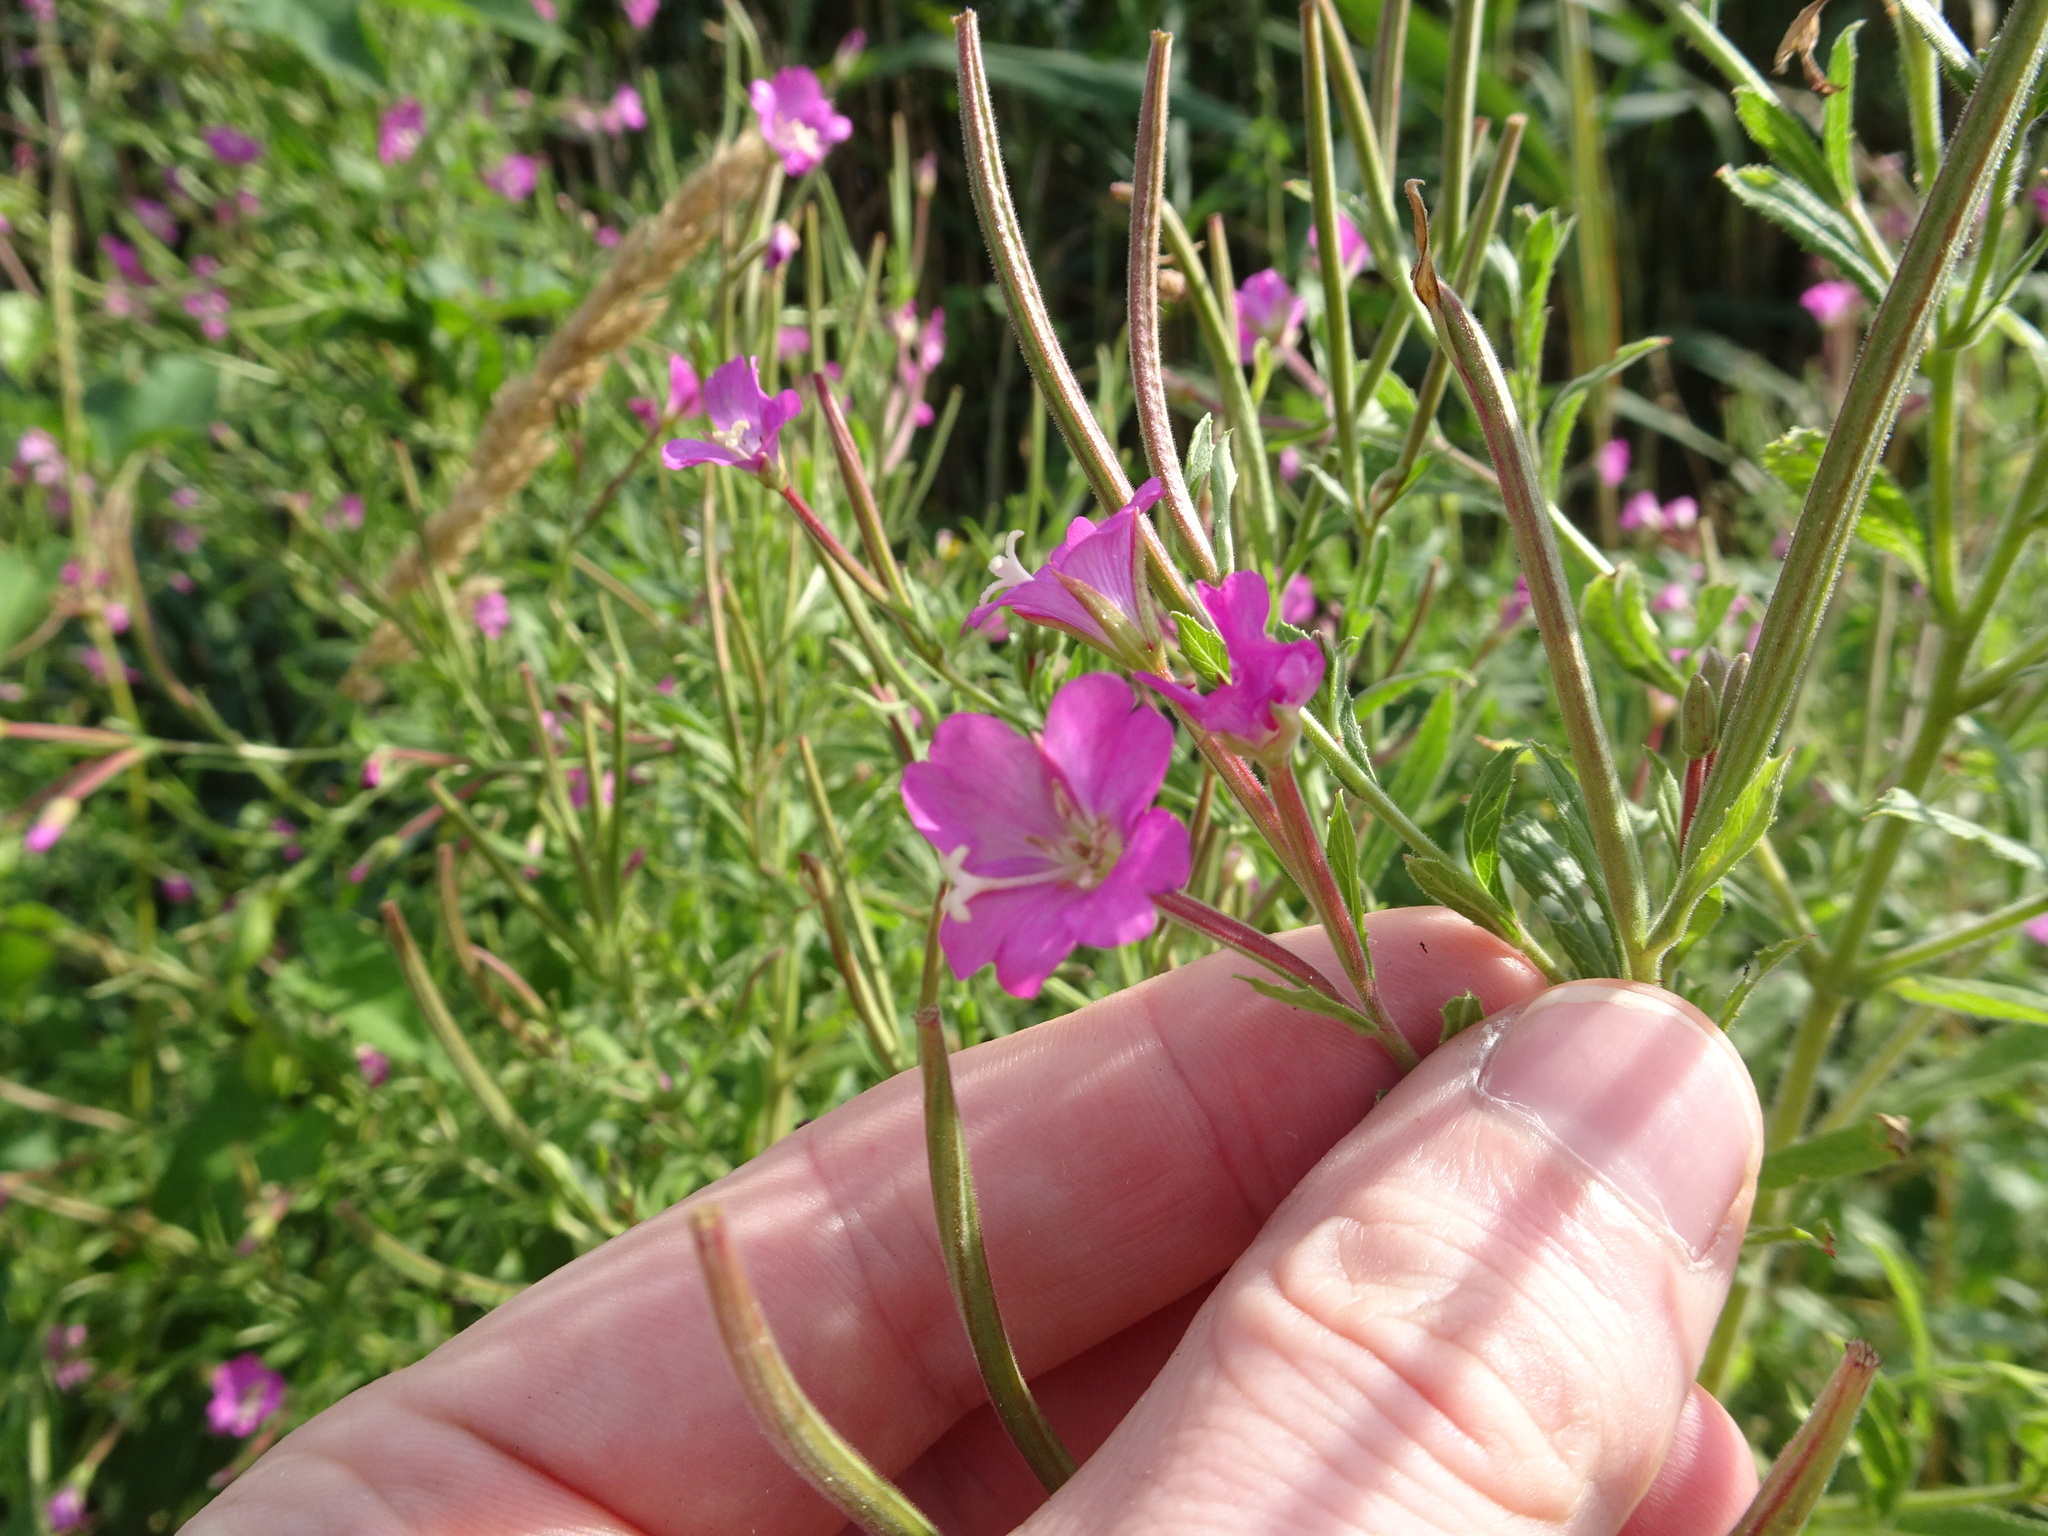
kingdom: Plantae
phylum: Tracheophyta
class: Magnoliopsida
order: Myrtales
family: Onagraceae
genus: Epilobium
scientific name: Epilobium hirsutum
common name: Great willowherb
